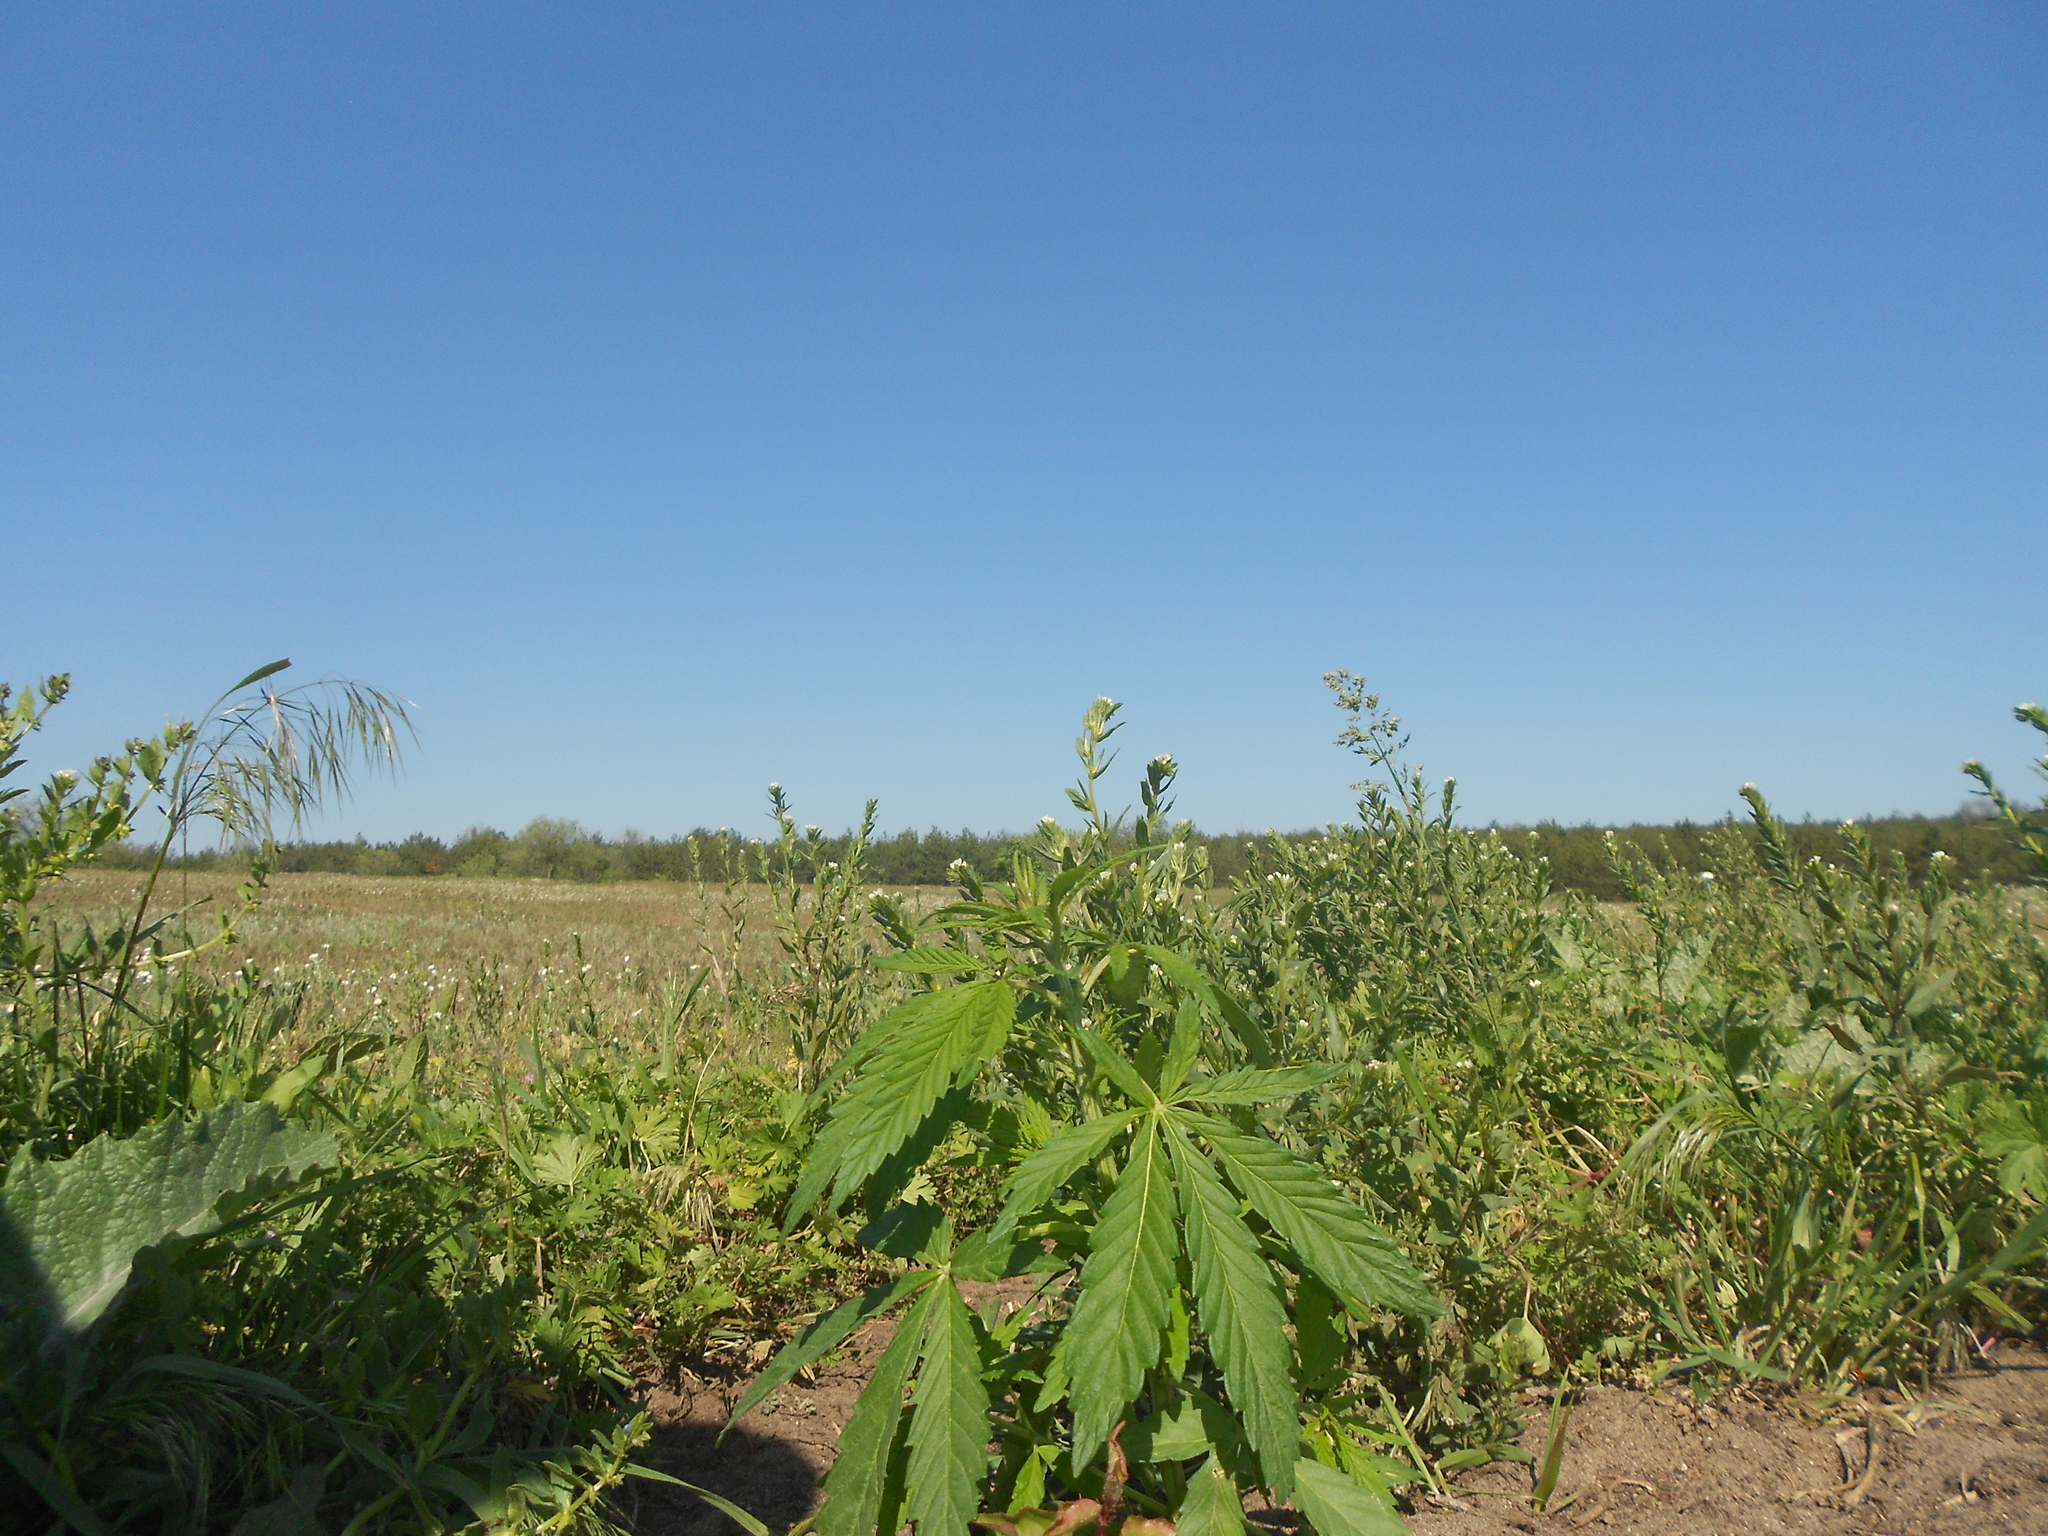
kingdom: Plantae
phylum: Tracheophyta
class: Magnoliopsida
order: Rosales
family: Cannabaceae
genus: Cannabis
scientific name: Cannabis sativa
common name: Hemp
